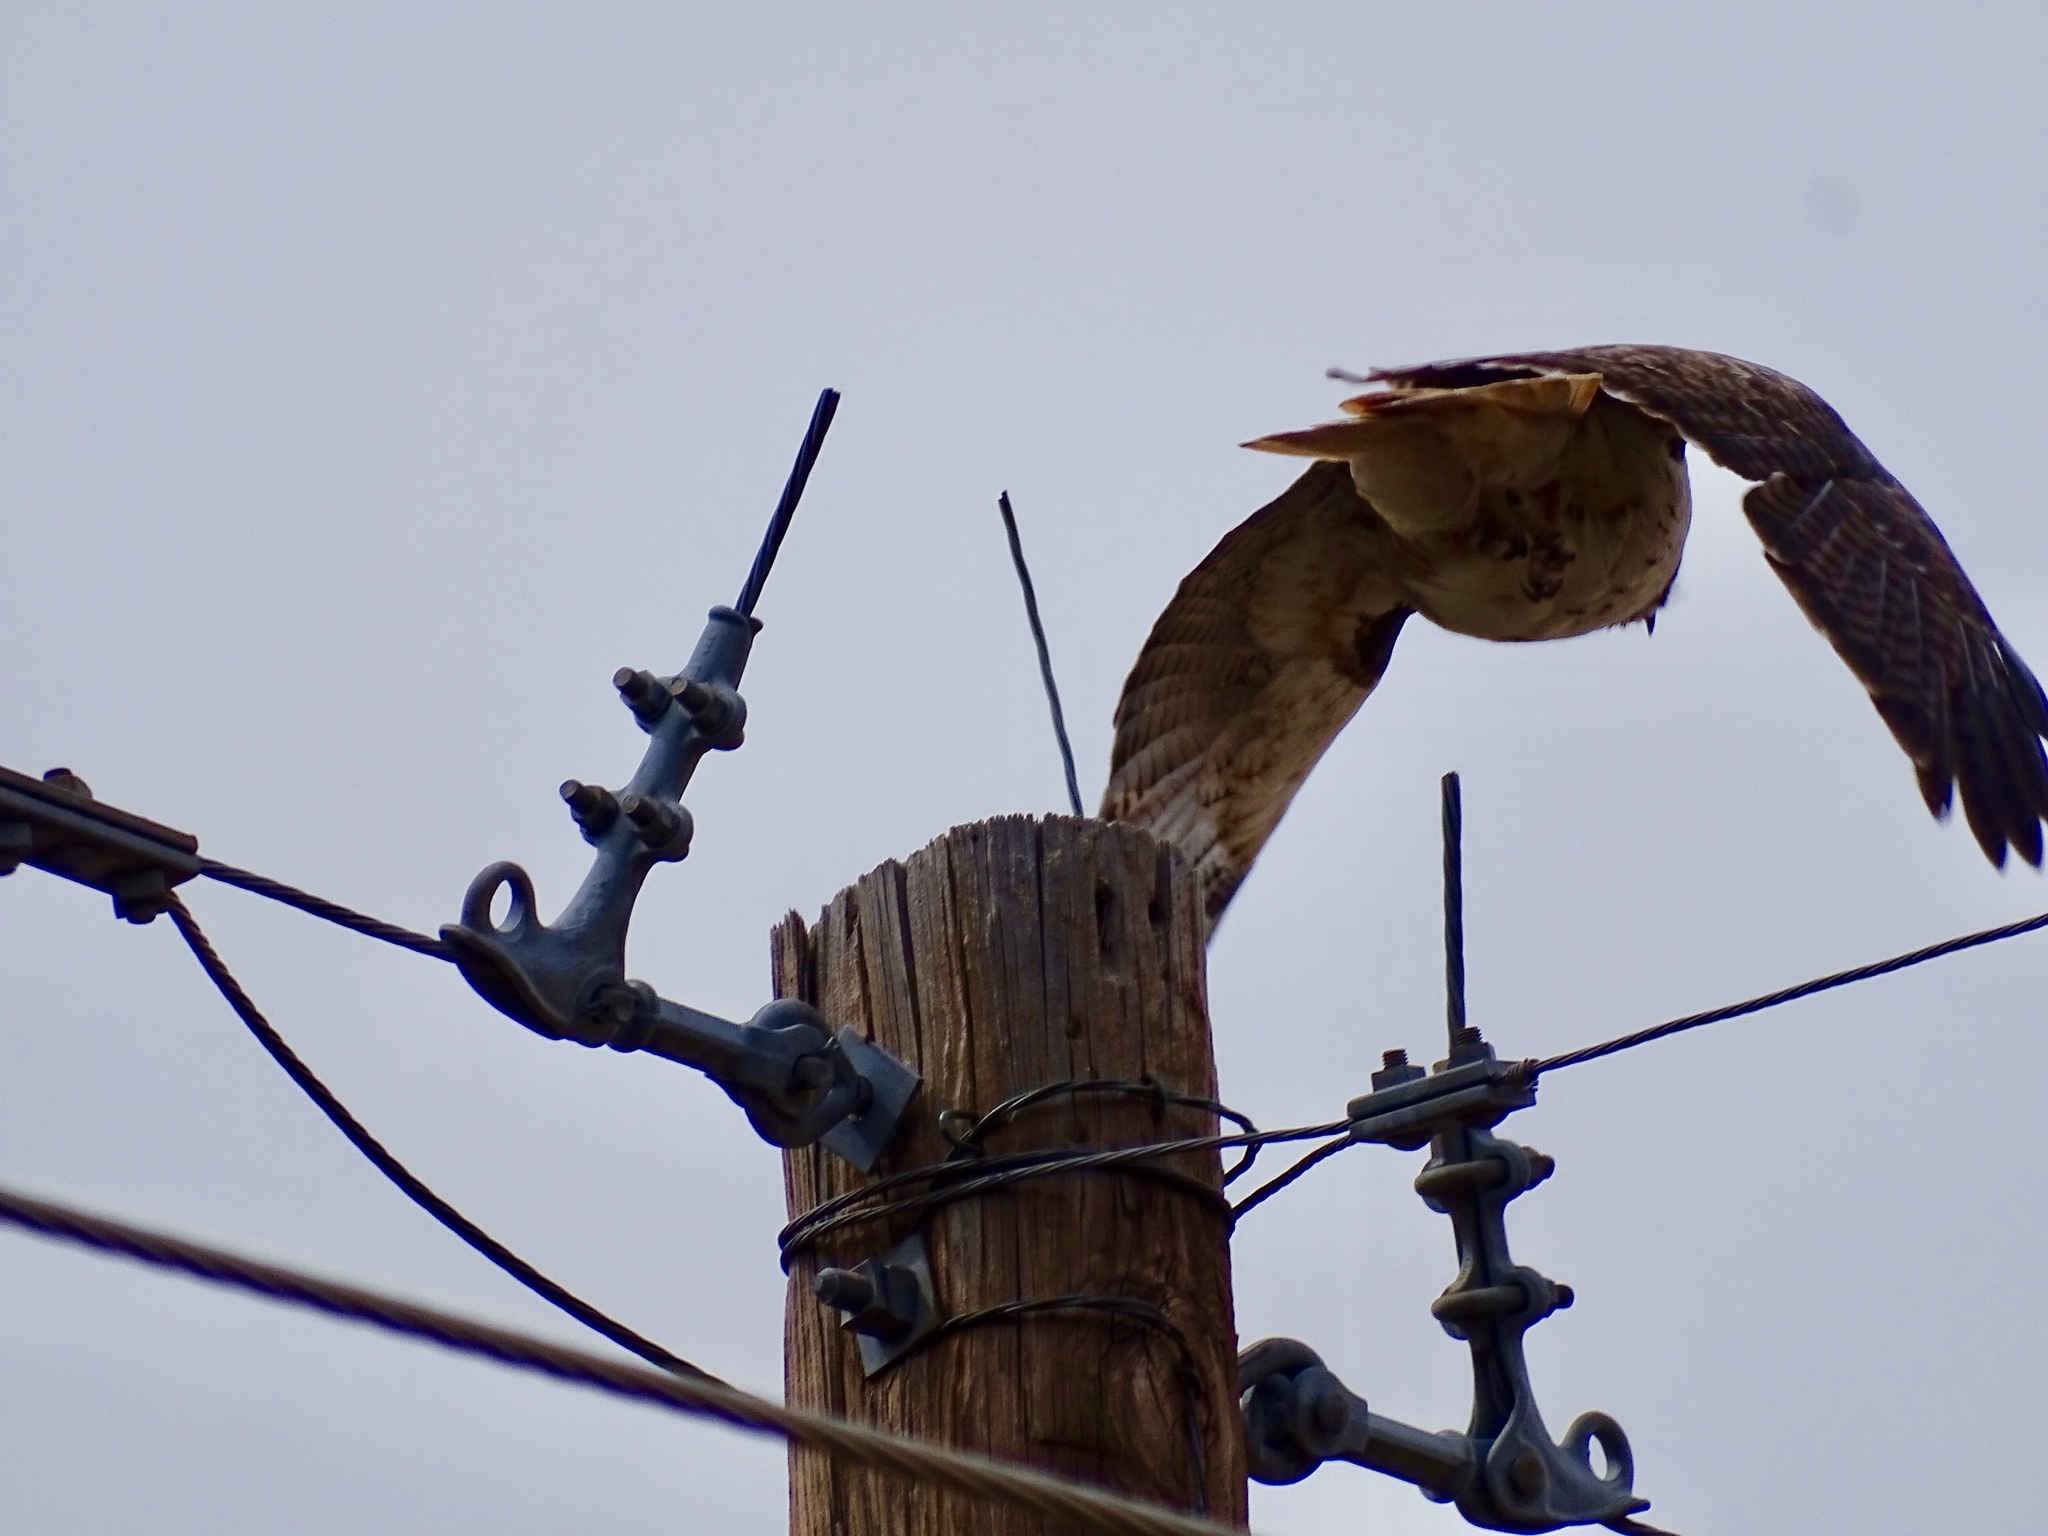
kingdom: Animalia
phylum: Chordata
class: Aves
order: Accipitriformes
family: Accipitridae
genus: Buteo
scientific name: Buteo jamaicensis
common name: Red-tailed hawk
